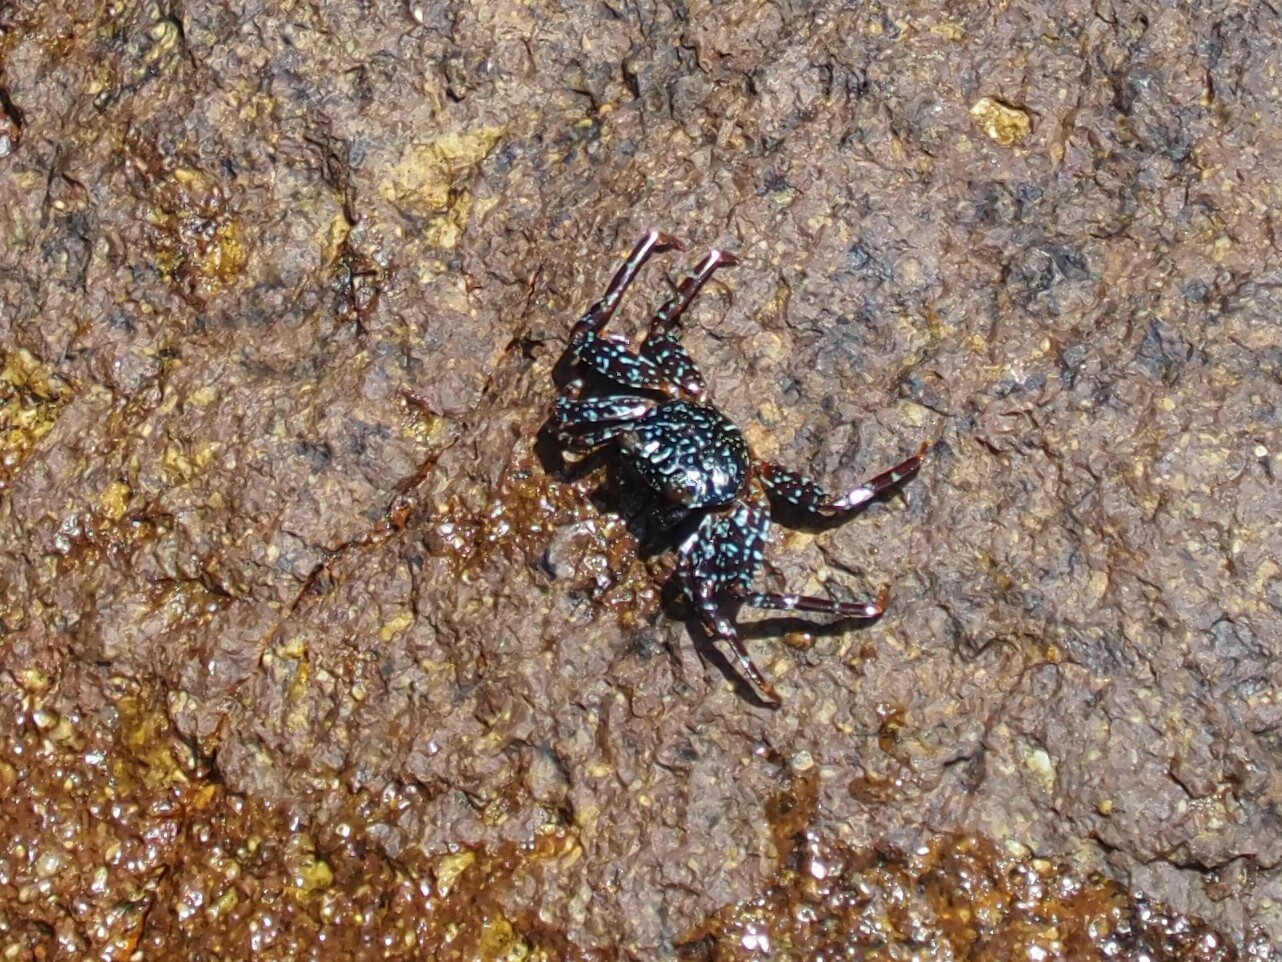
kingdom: Animalia
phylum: Arthropoda
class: Malacostraca
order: Decapoda
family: Grapsidae
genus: Grapsus
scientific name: Grapsus grapsus
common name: Sally lightfoot
